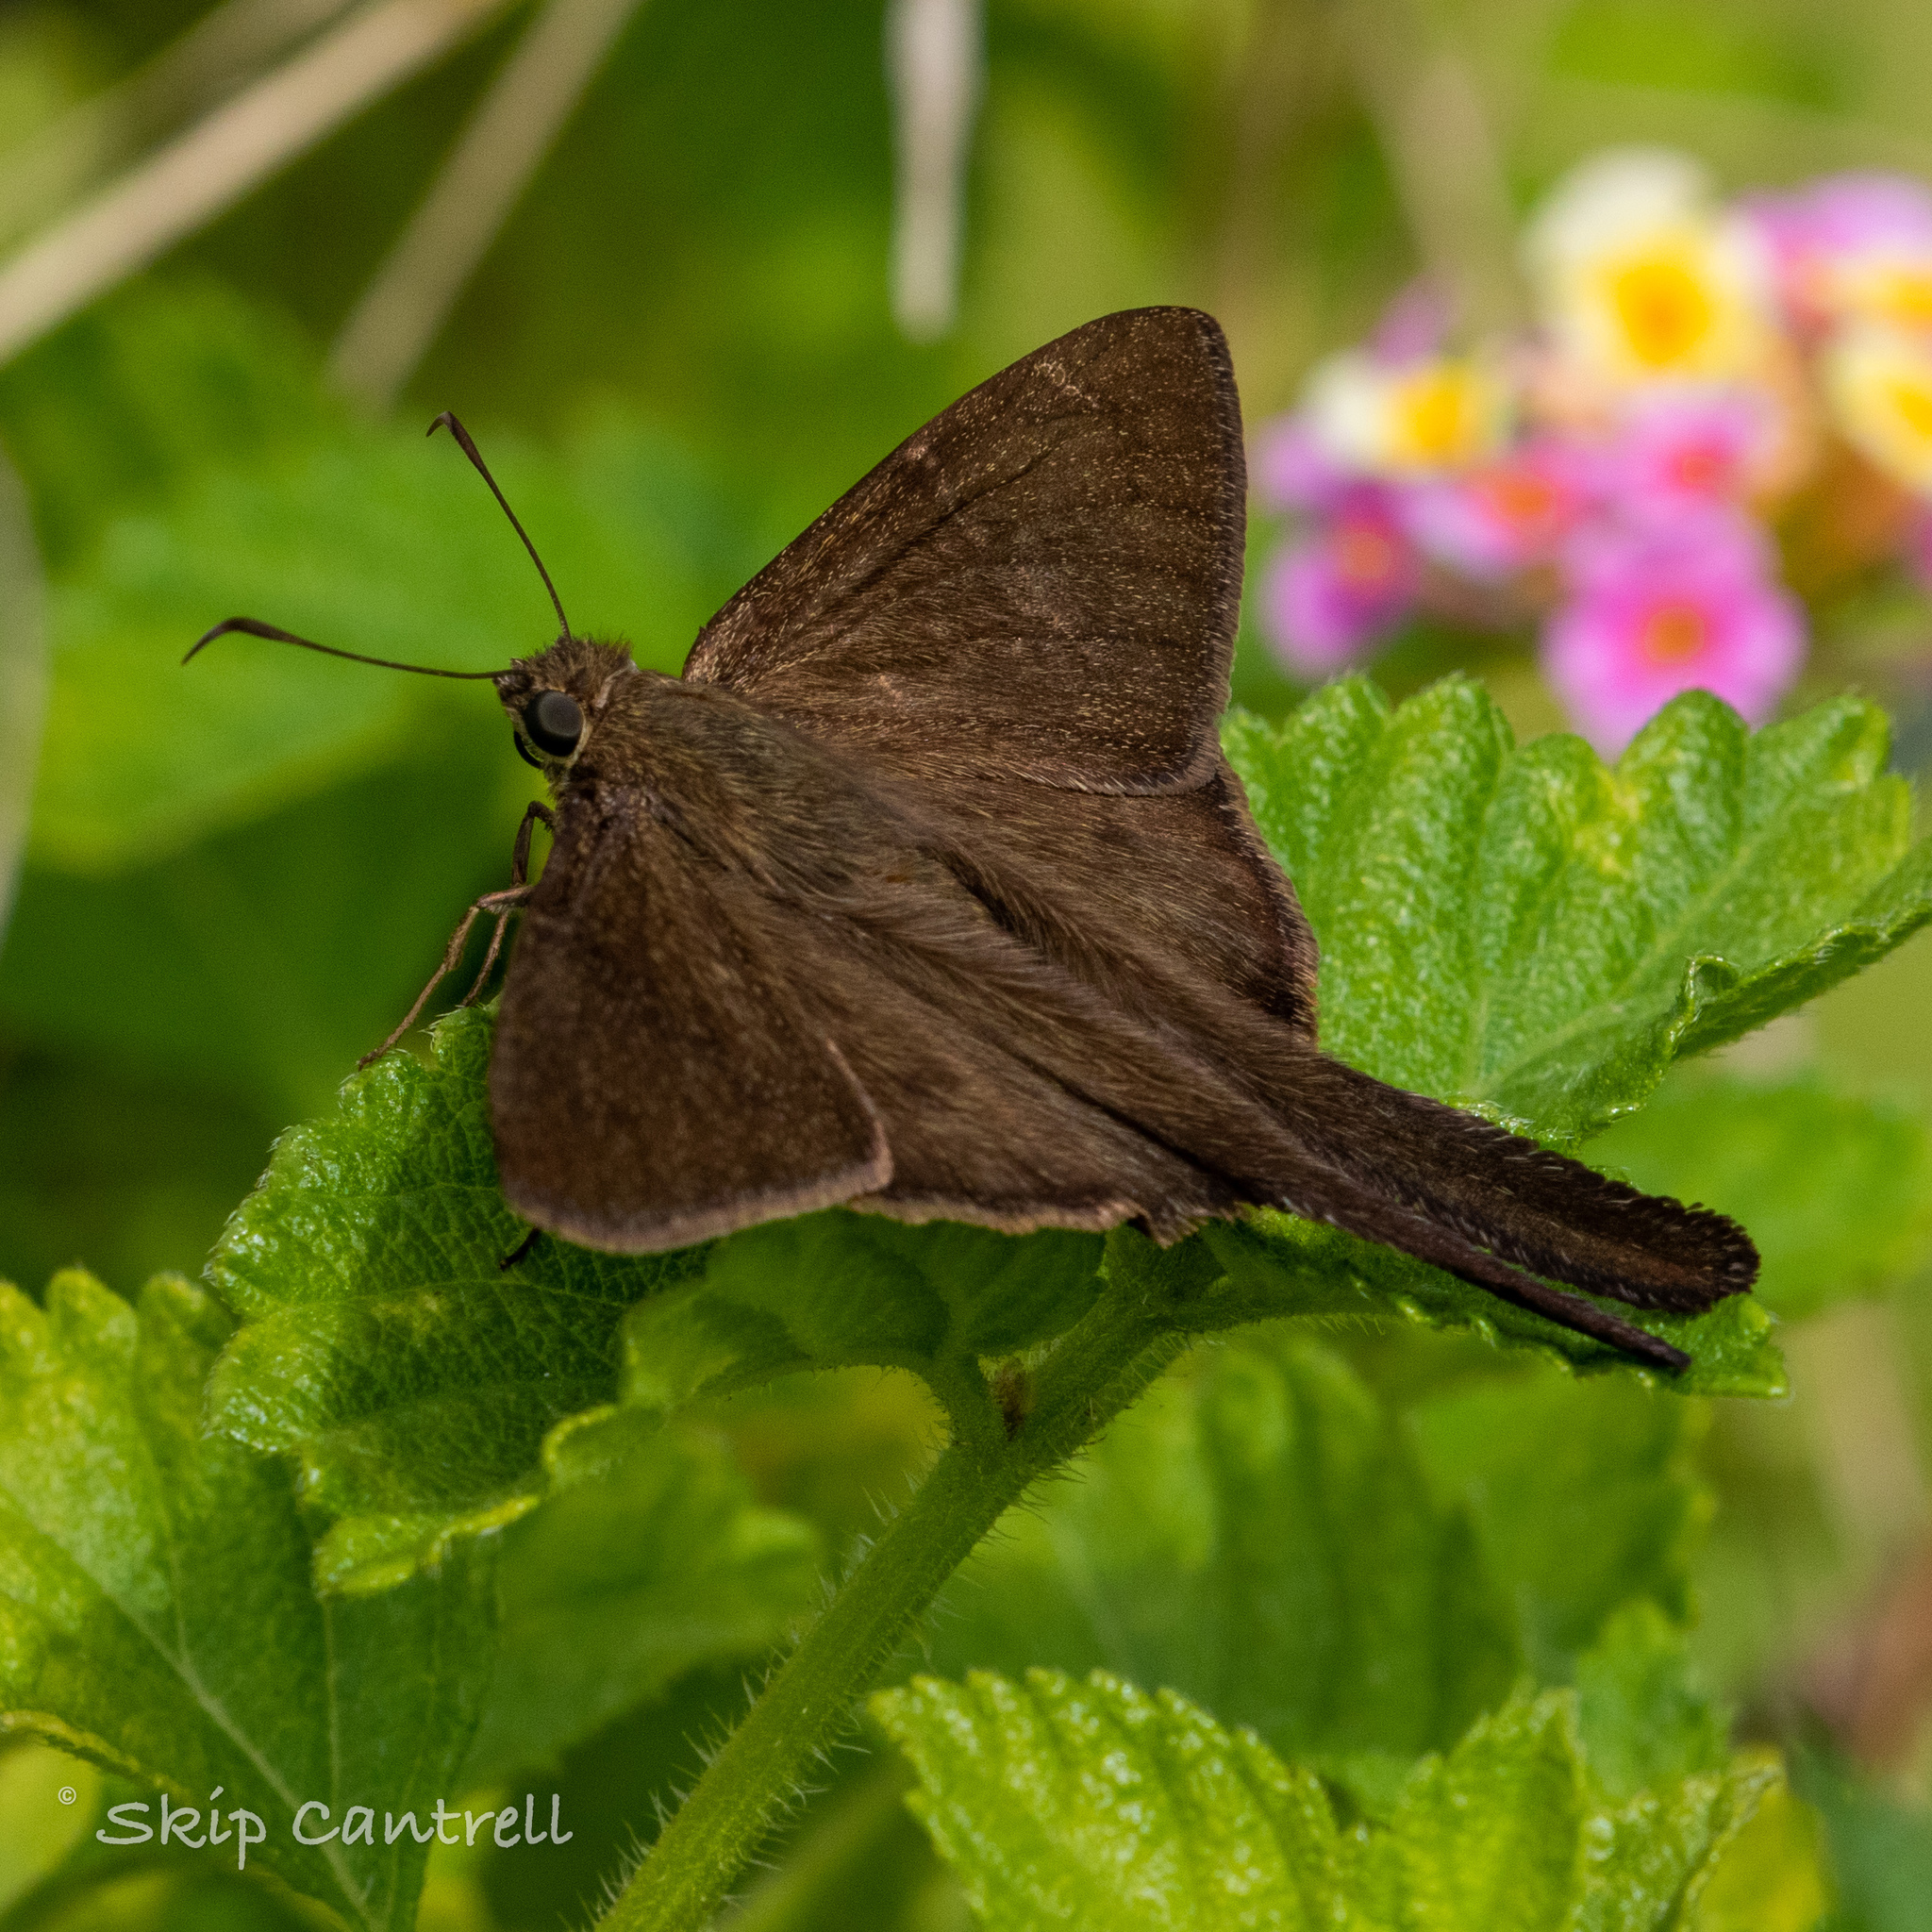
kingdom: Animalia
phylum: Arthropoda
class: Insecta
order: Lepidoptera
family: Hesperiidae
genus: Urbanus
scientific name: Urbanus procne
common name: Brown longtail
